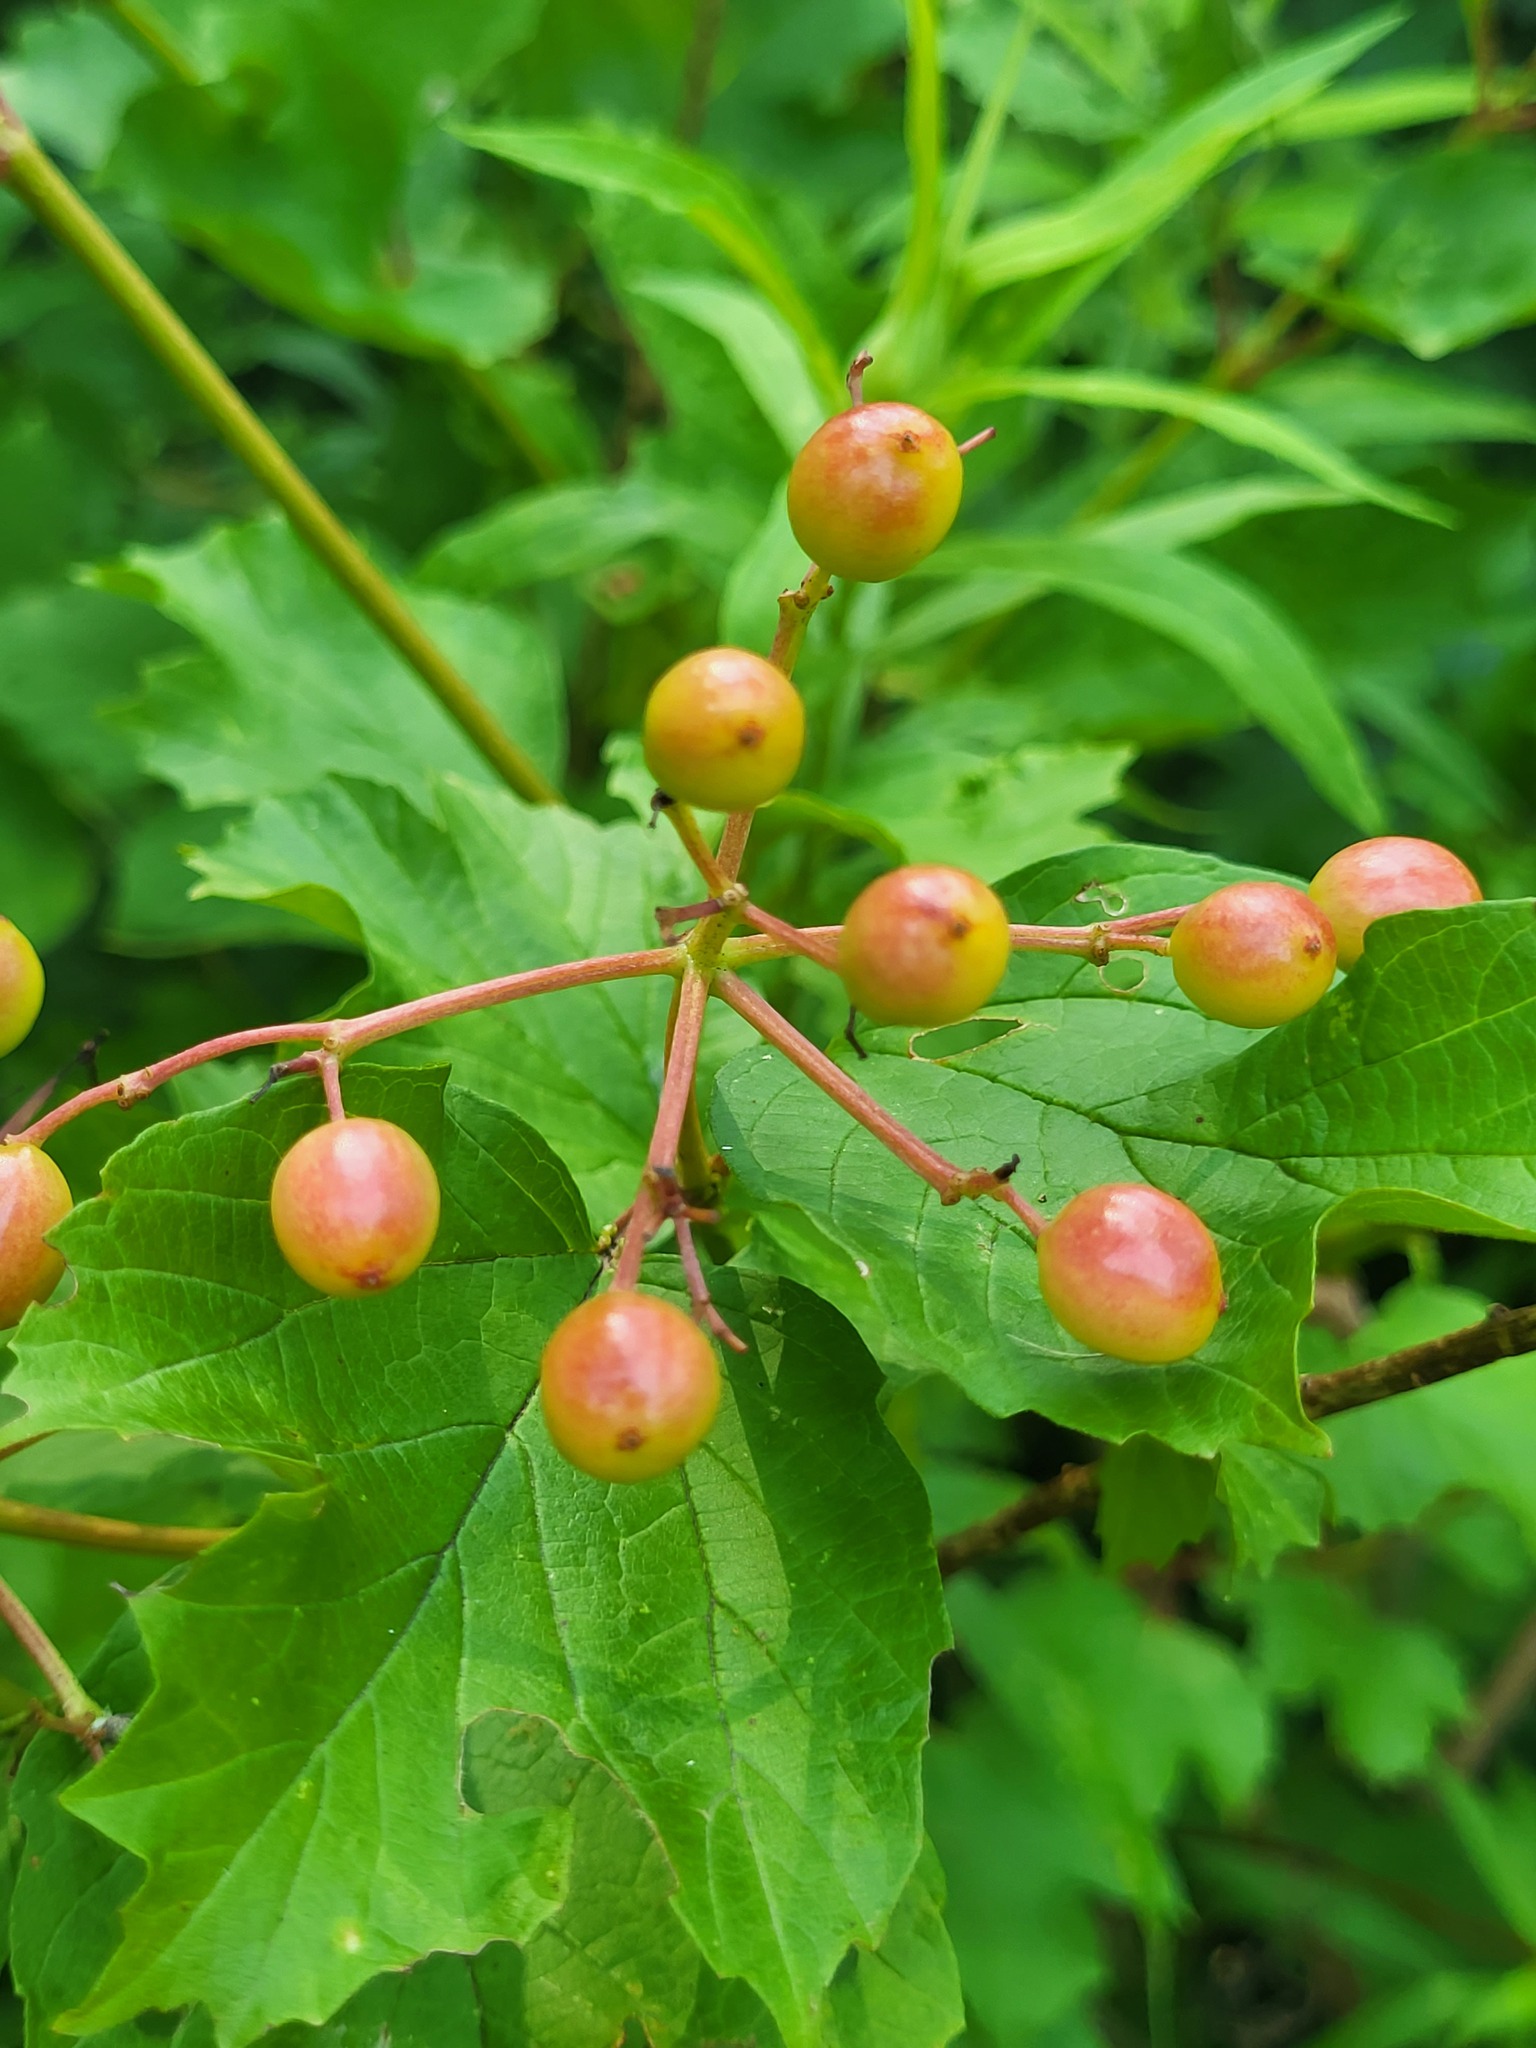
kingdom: Plantae
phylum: Tracheophyta
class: Magnoliopsida
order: Dipsacales
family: Viburnaceae
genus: Viburnum
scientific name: Viburnum opulus
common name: Guelder-rose
